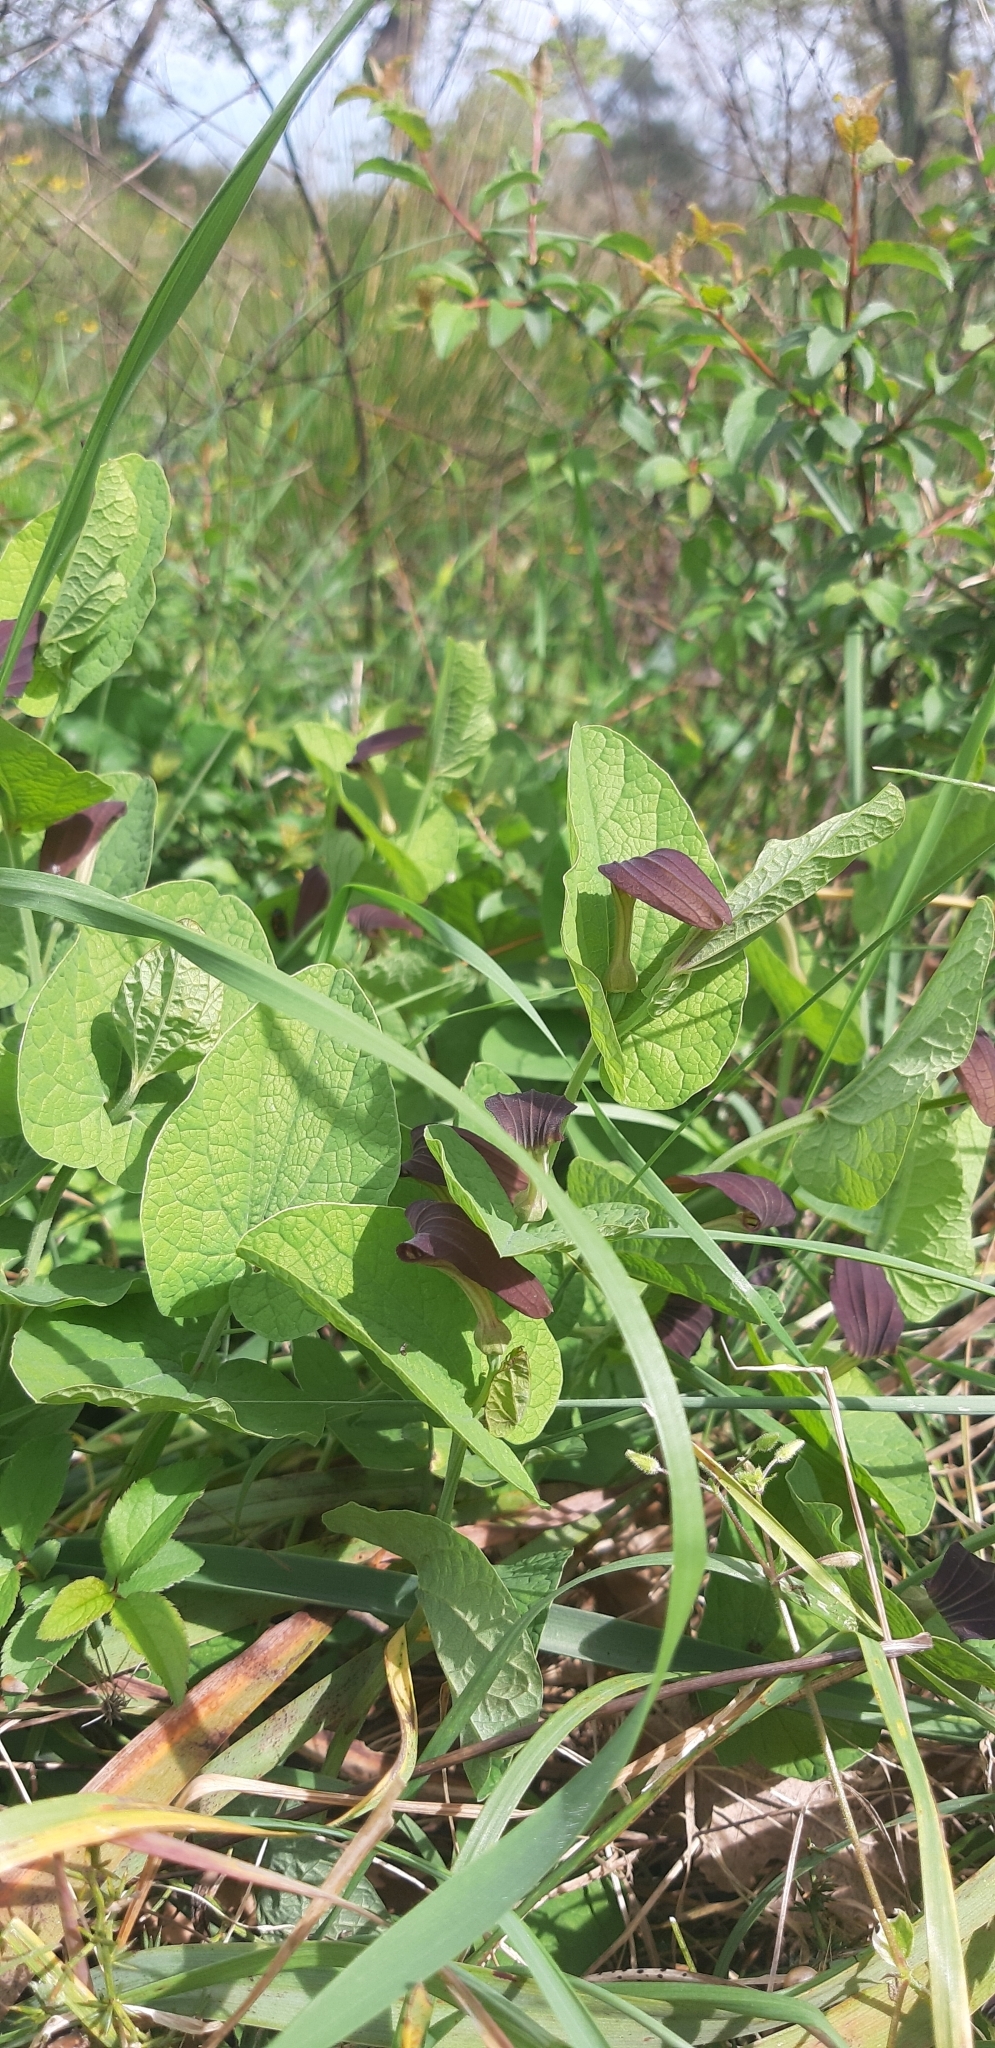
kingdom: Plantae
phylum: Tracheophyta
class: Magnoliopsida
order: Piperales
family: Aristolochiaceae
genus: Aristolochia
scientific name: Aristolochia rotunda
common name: Smearwort
